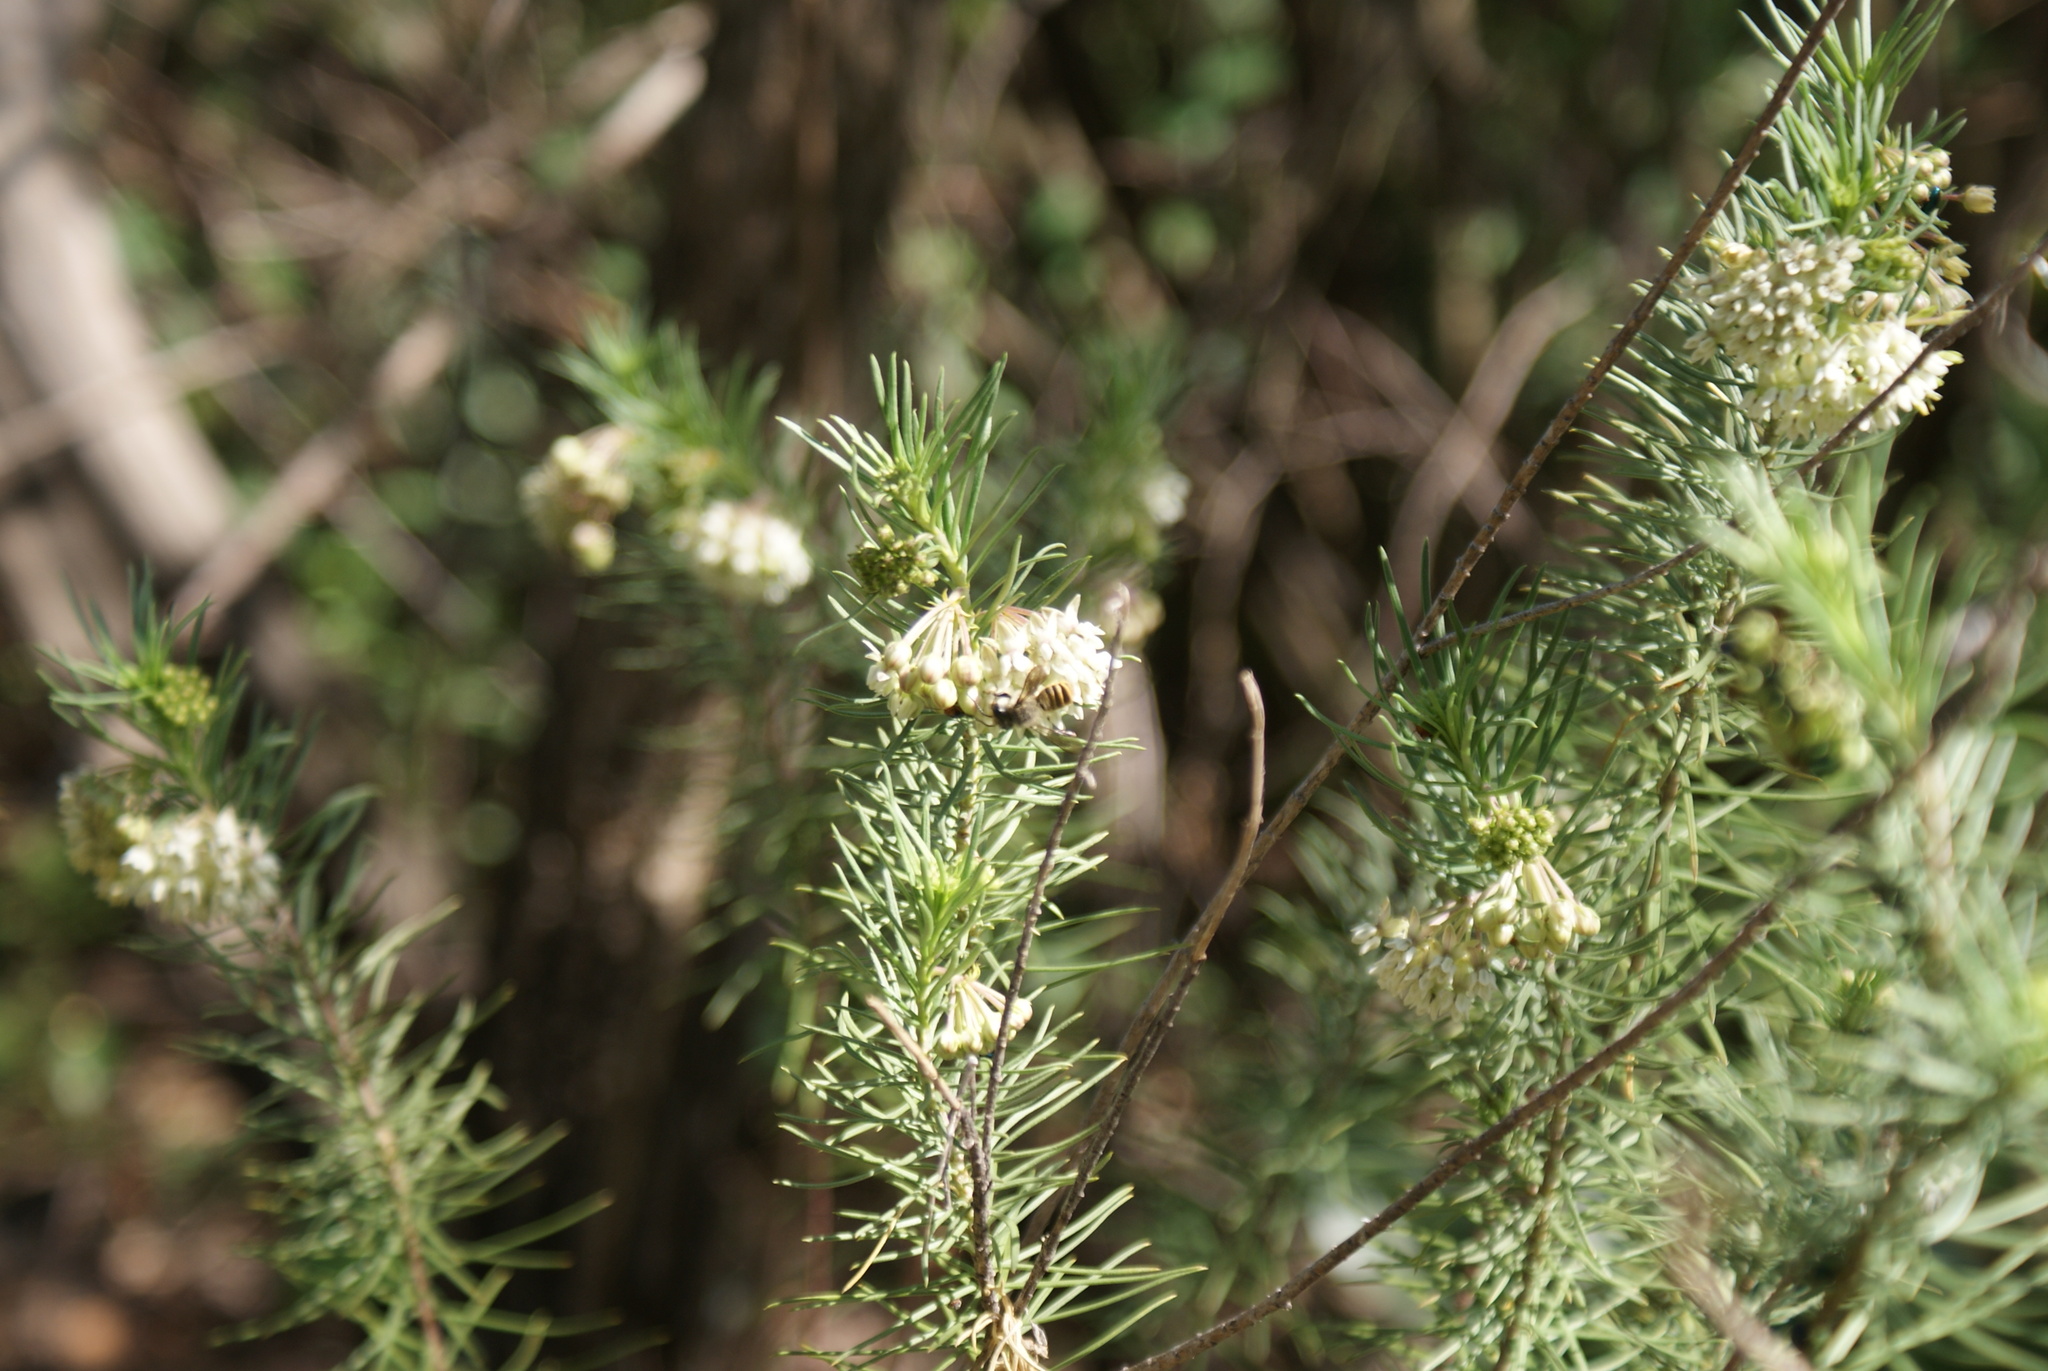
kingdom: Plantae
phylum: Tracheophyta
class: Magnoliopsida
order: Gentianales
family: Apocynaceae
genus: Asclepias
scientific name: Asclepias linaria
